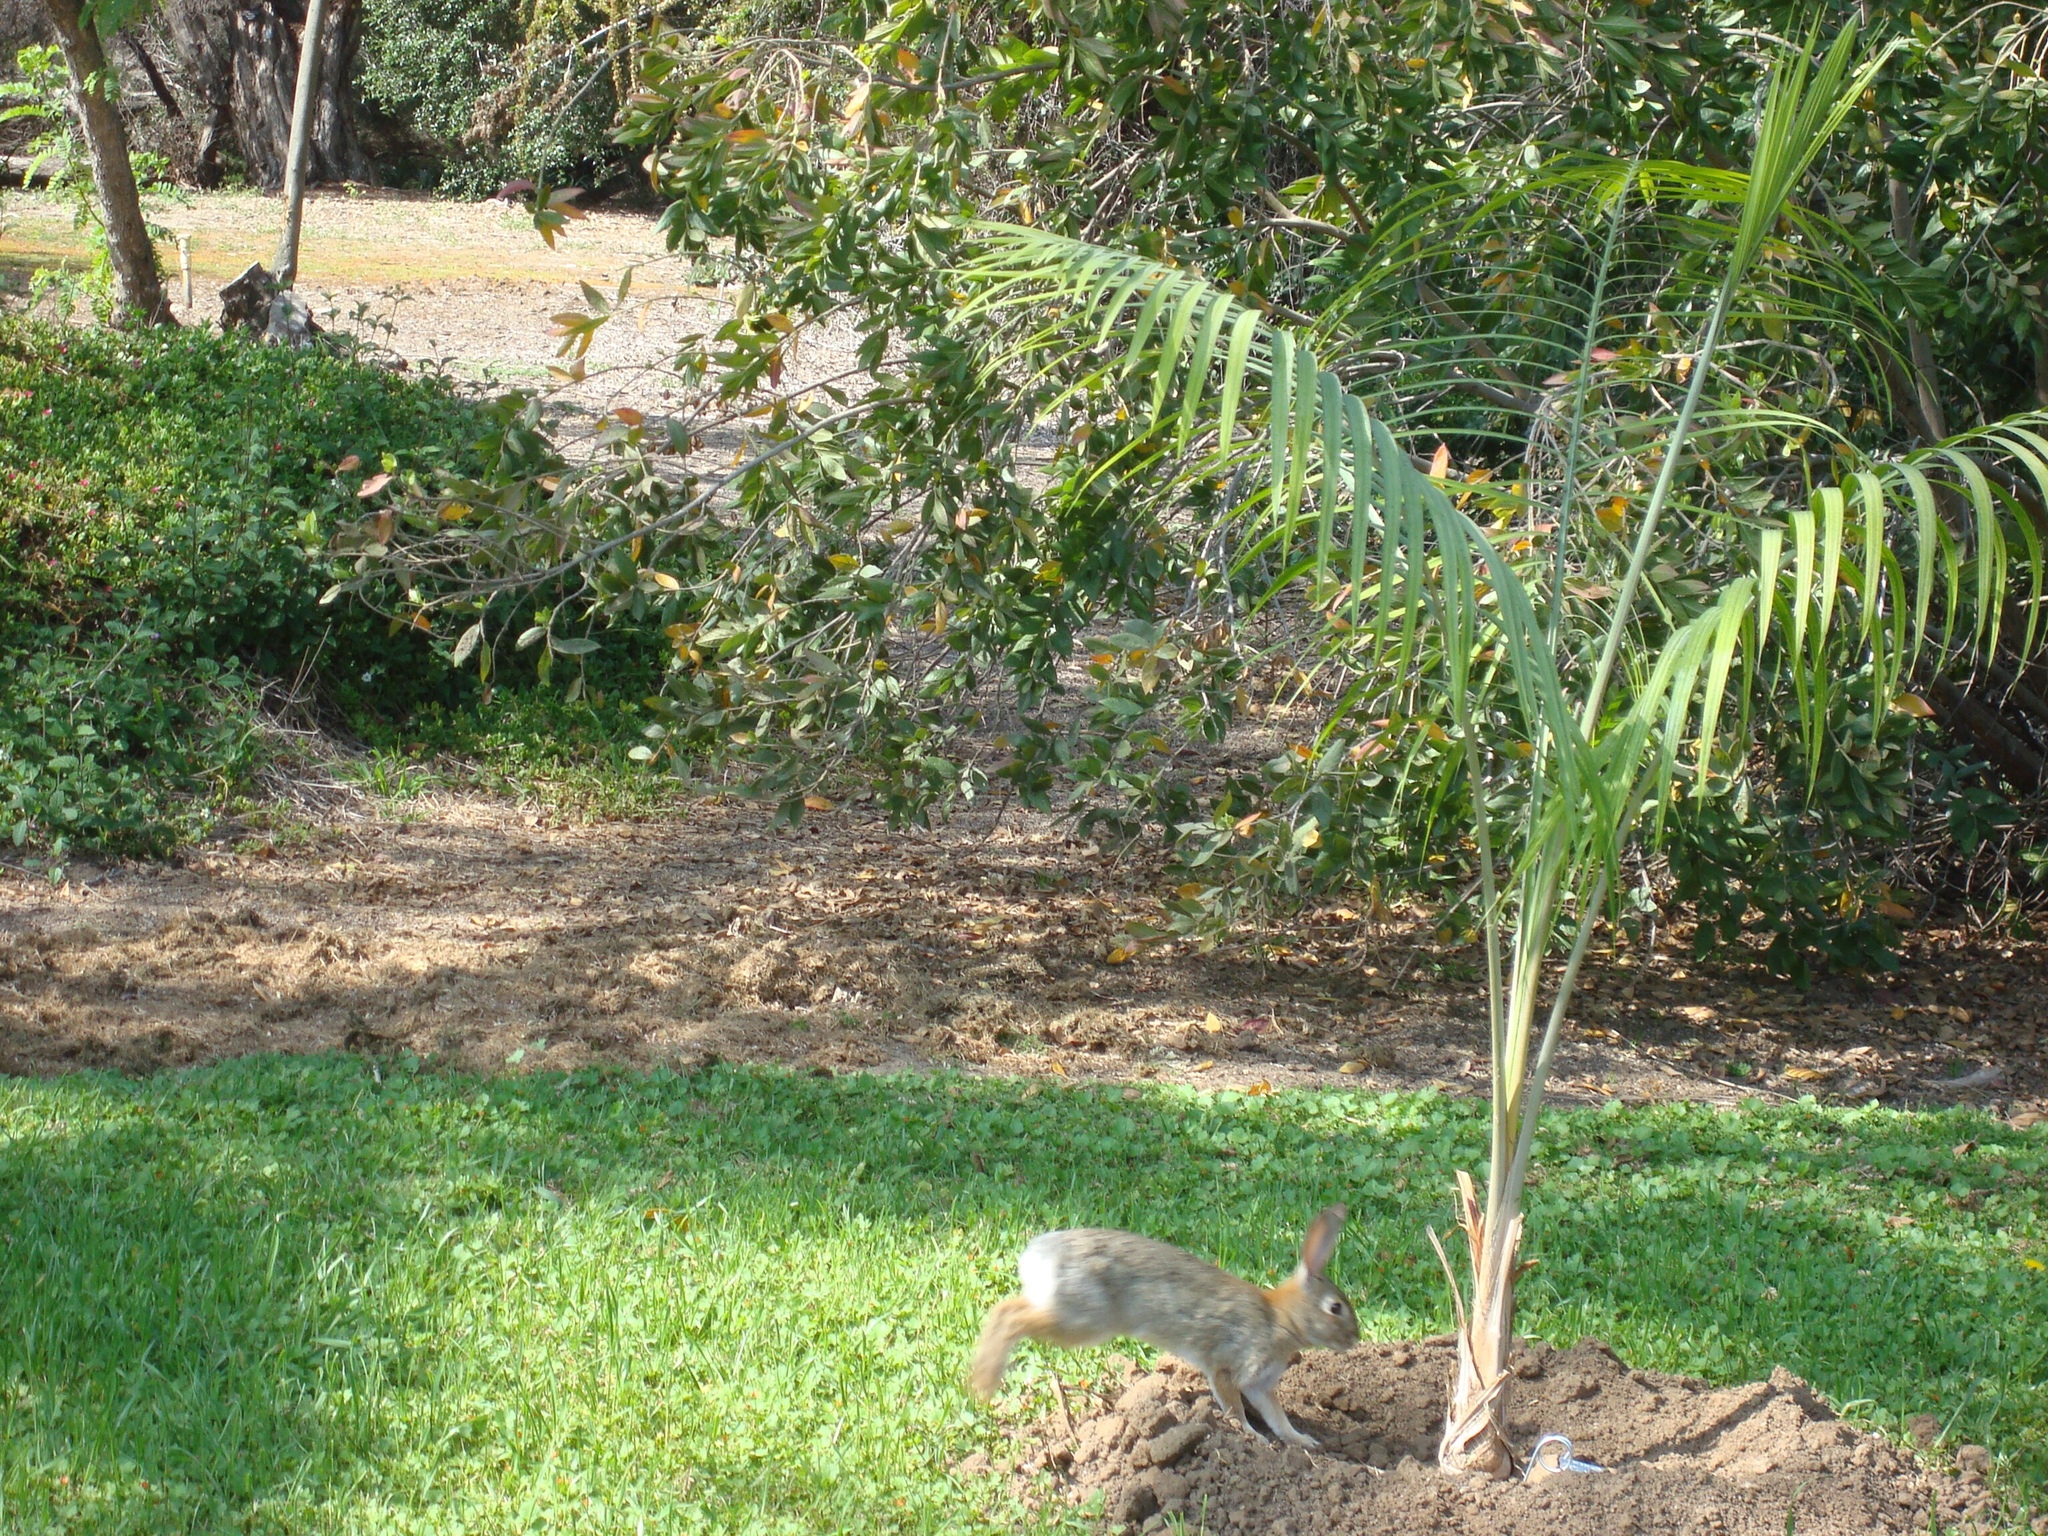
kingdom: Animalia
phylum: Chordata
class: Mammalia
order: Lagomorpha
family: Leporidae
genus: Sylvilagus
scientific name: Sylvilagus audubonii
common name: Desert cottontail
